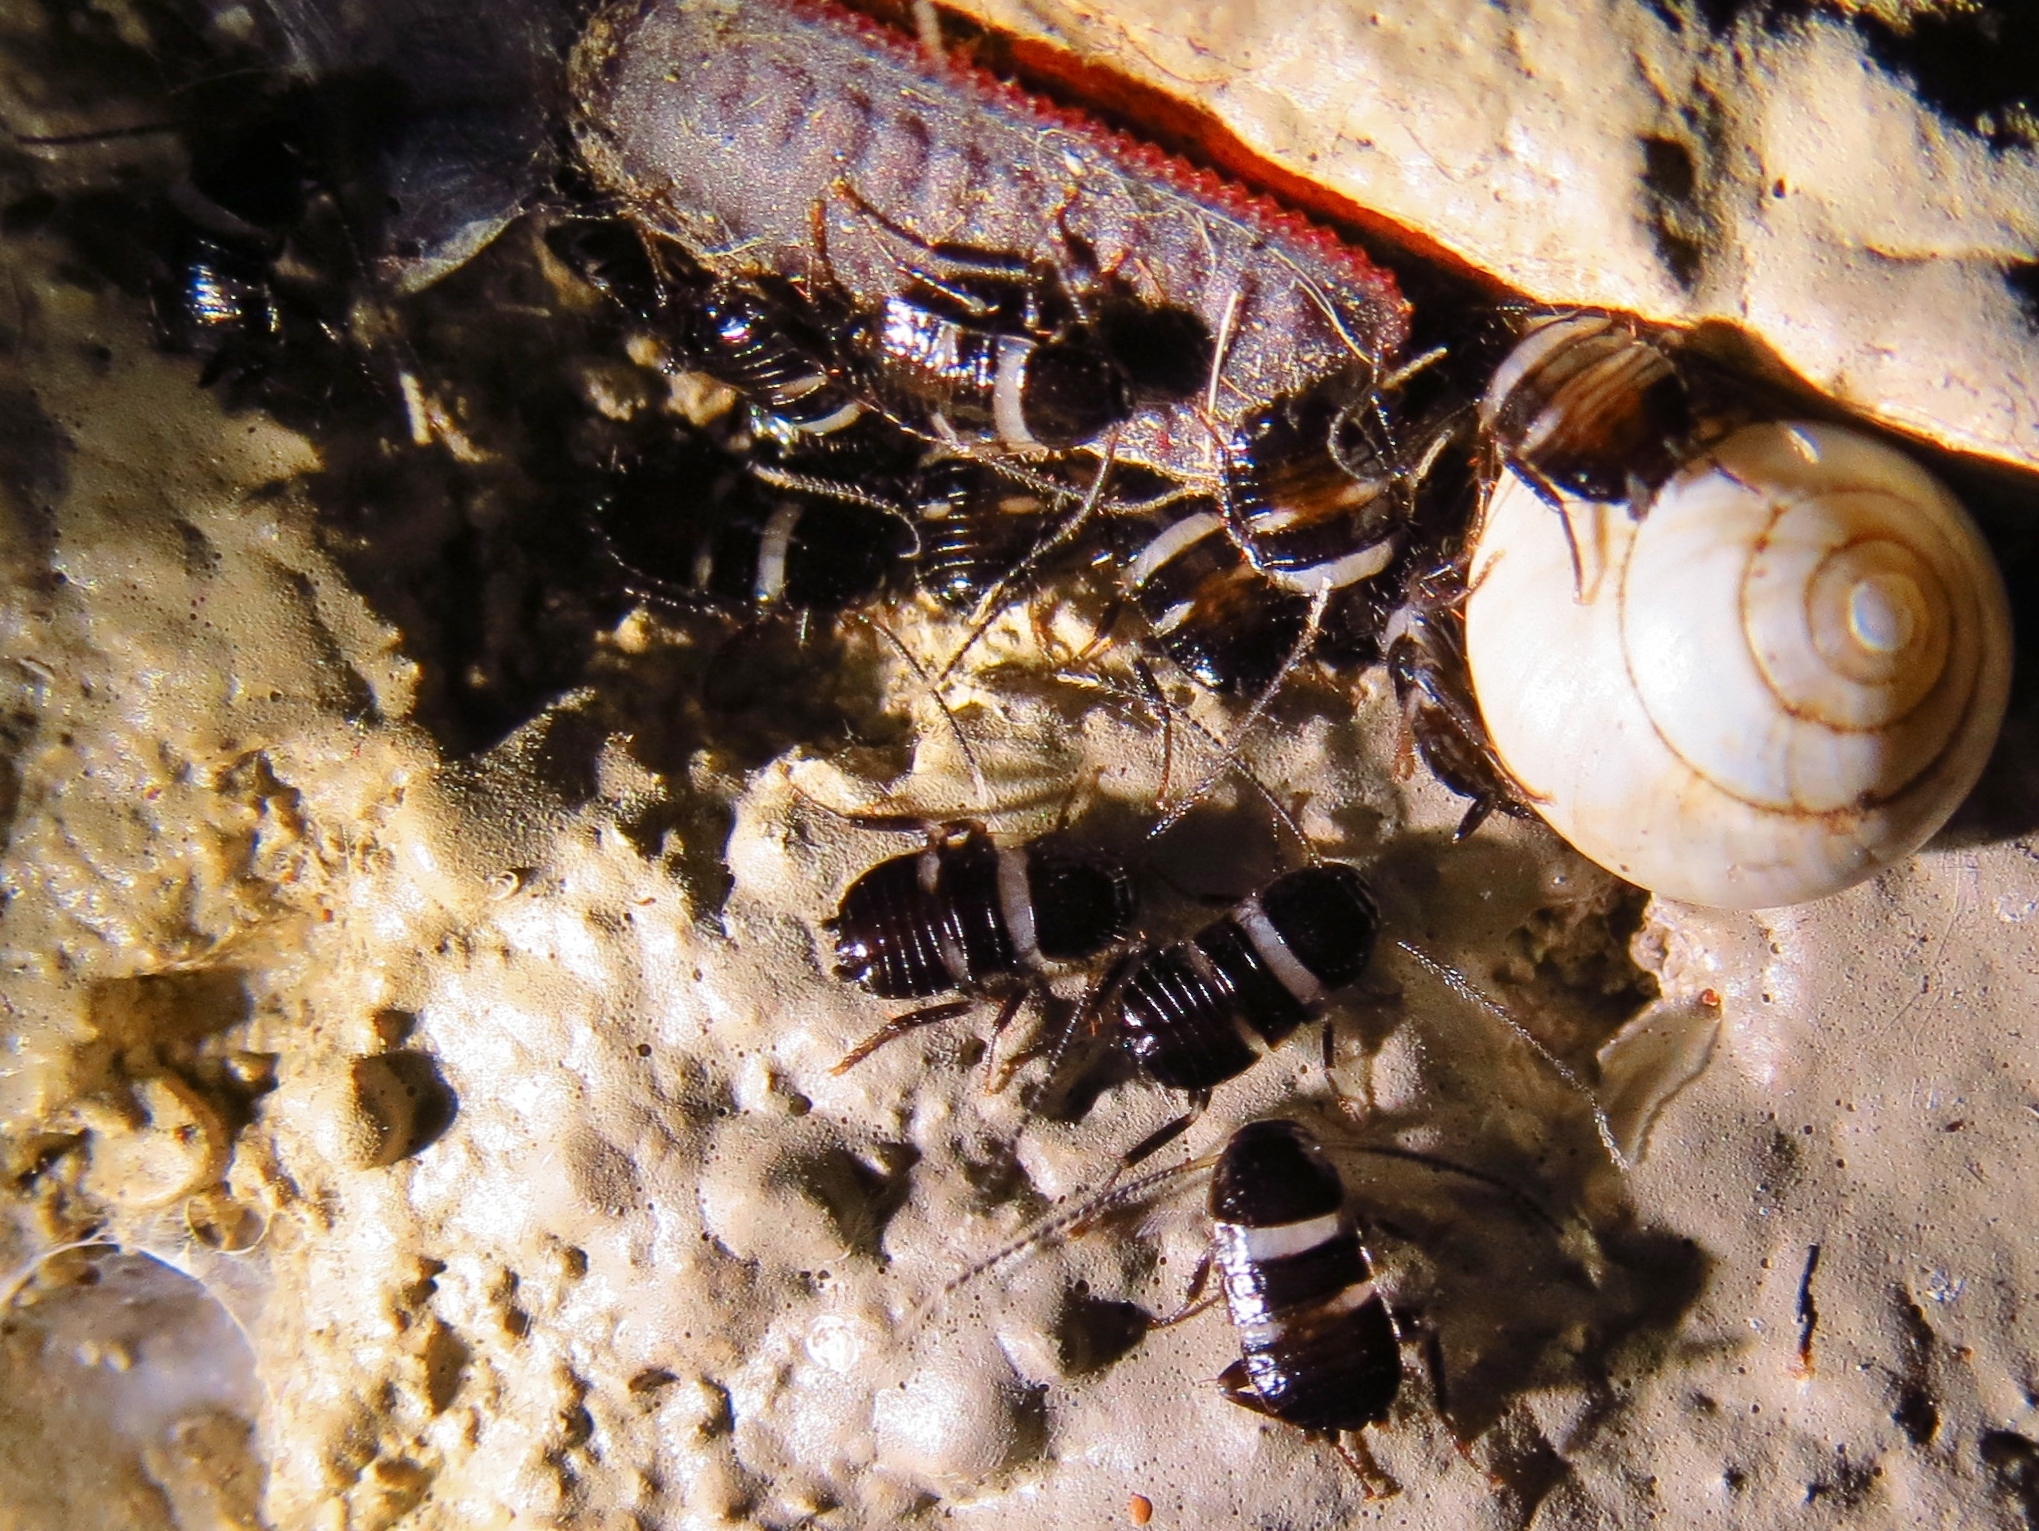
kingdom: Animalia
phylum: Arthropoda
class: Insecta
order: Blattodea
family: Blattidae
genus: Periplaneta
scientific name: Periplaneta fuliginosa
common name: Smokeybrown cockroad
